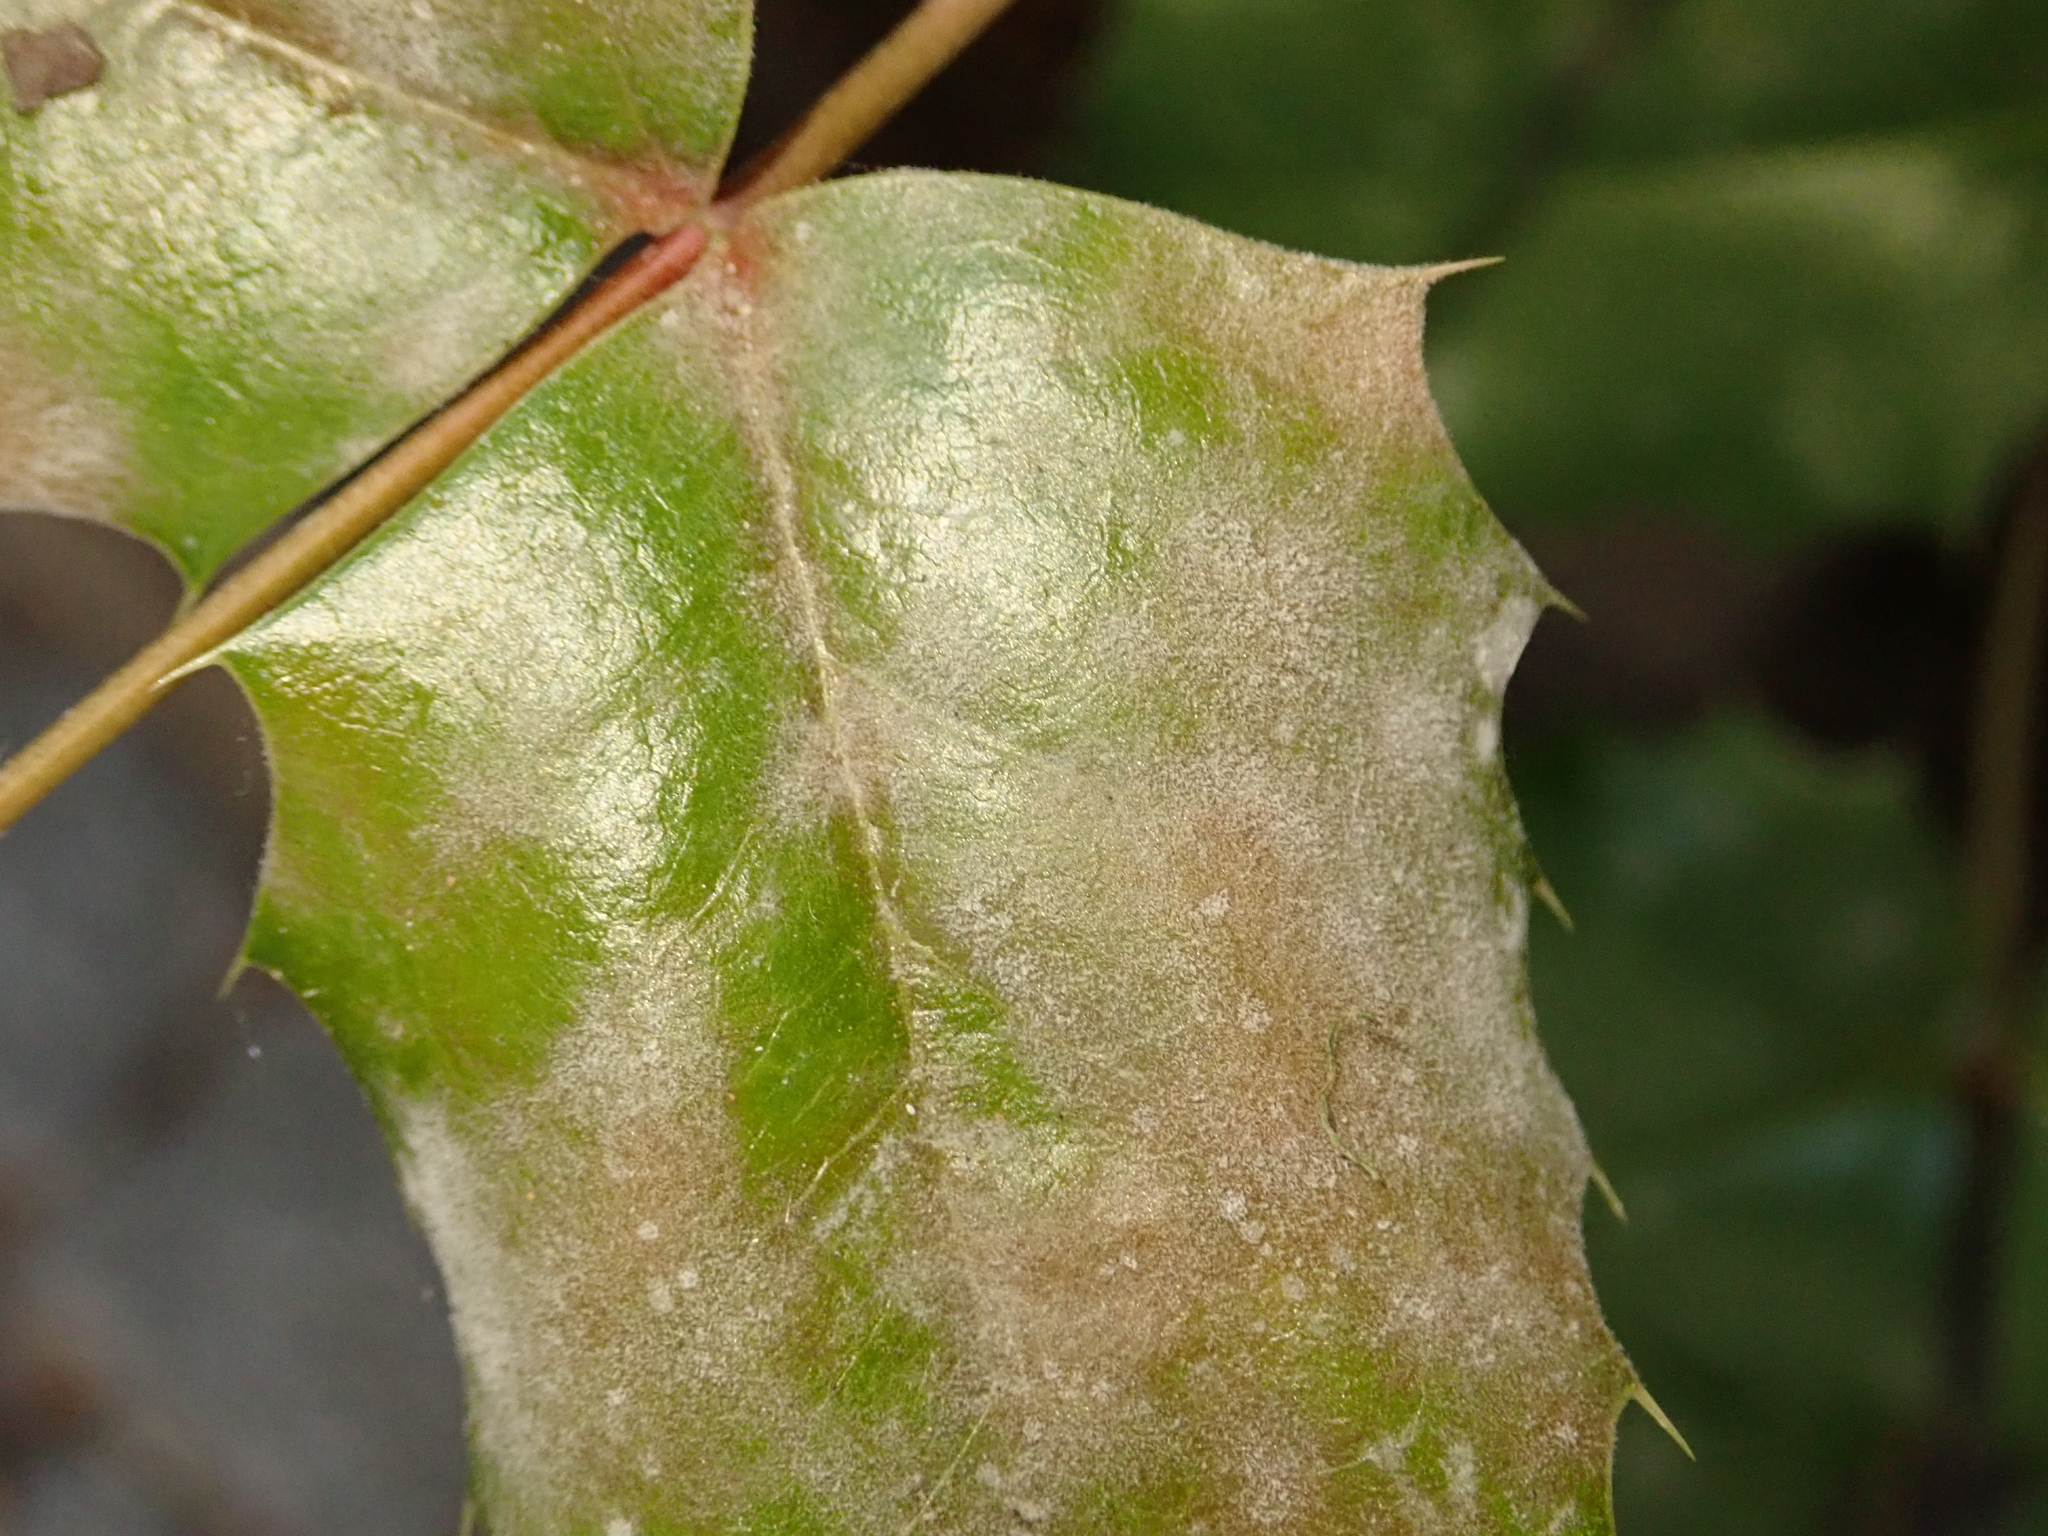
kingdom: Fungi
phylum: Ascomycota
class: Leotiomycetes
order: Helotiales
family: Erysiphaceae
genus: Erysiphe
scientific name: Erysiphe berberidis
